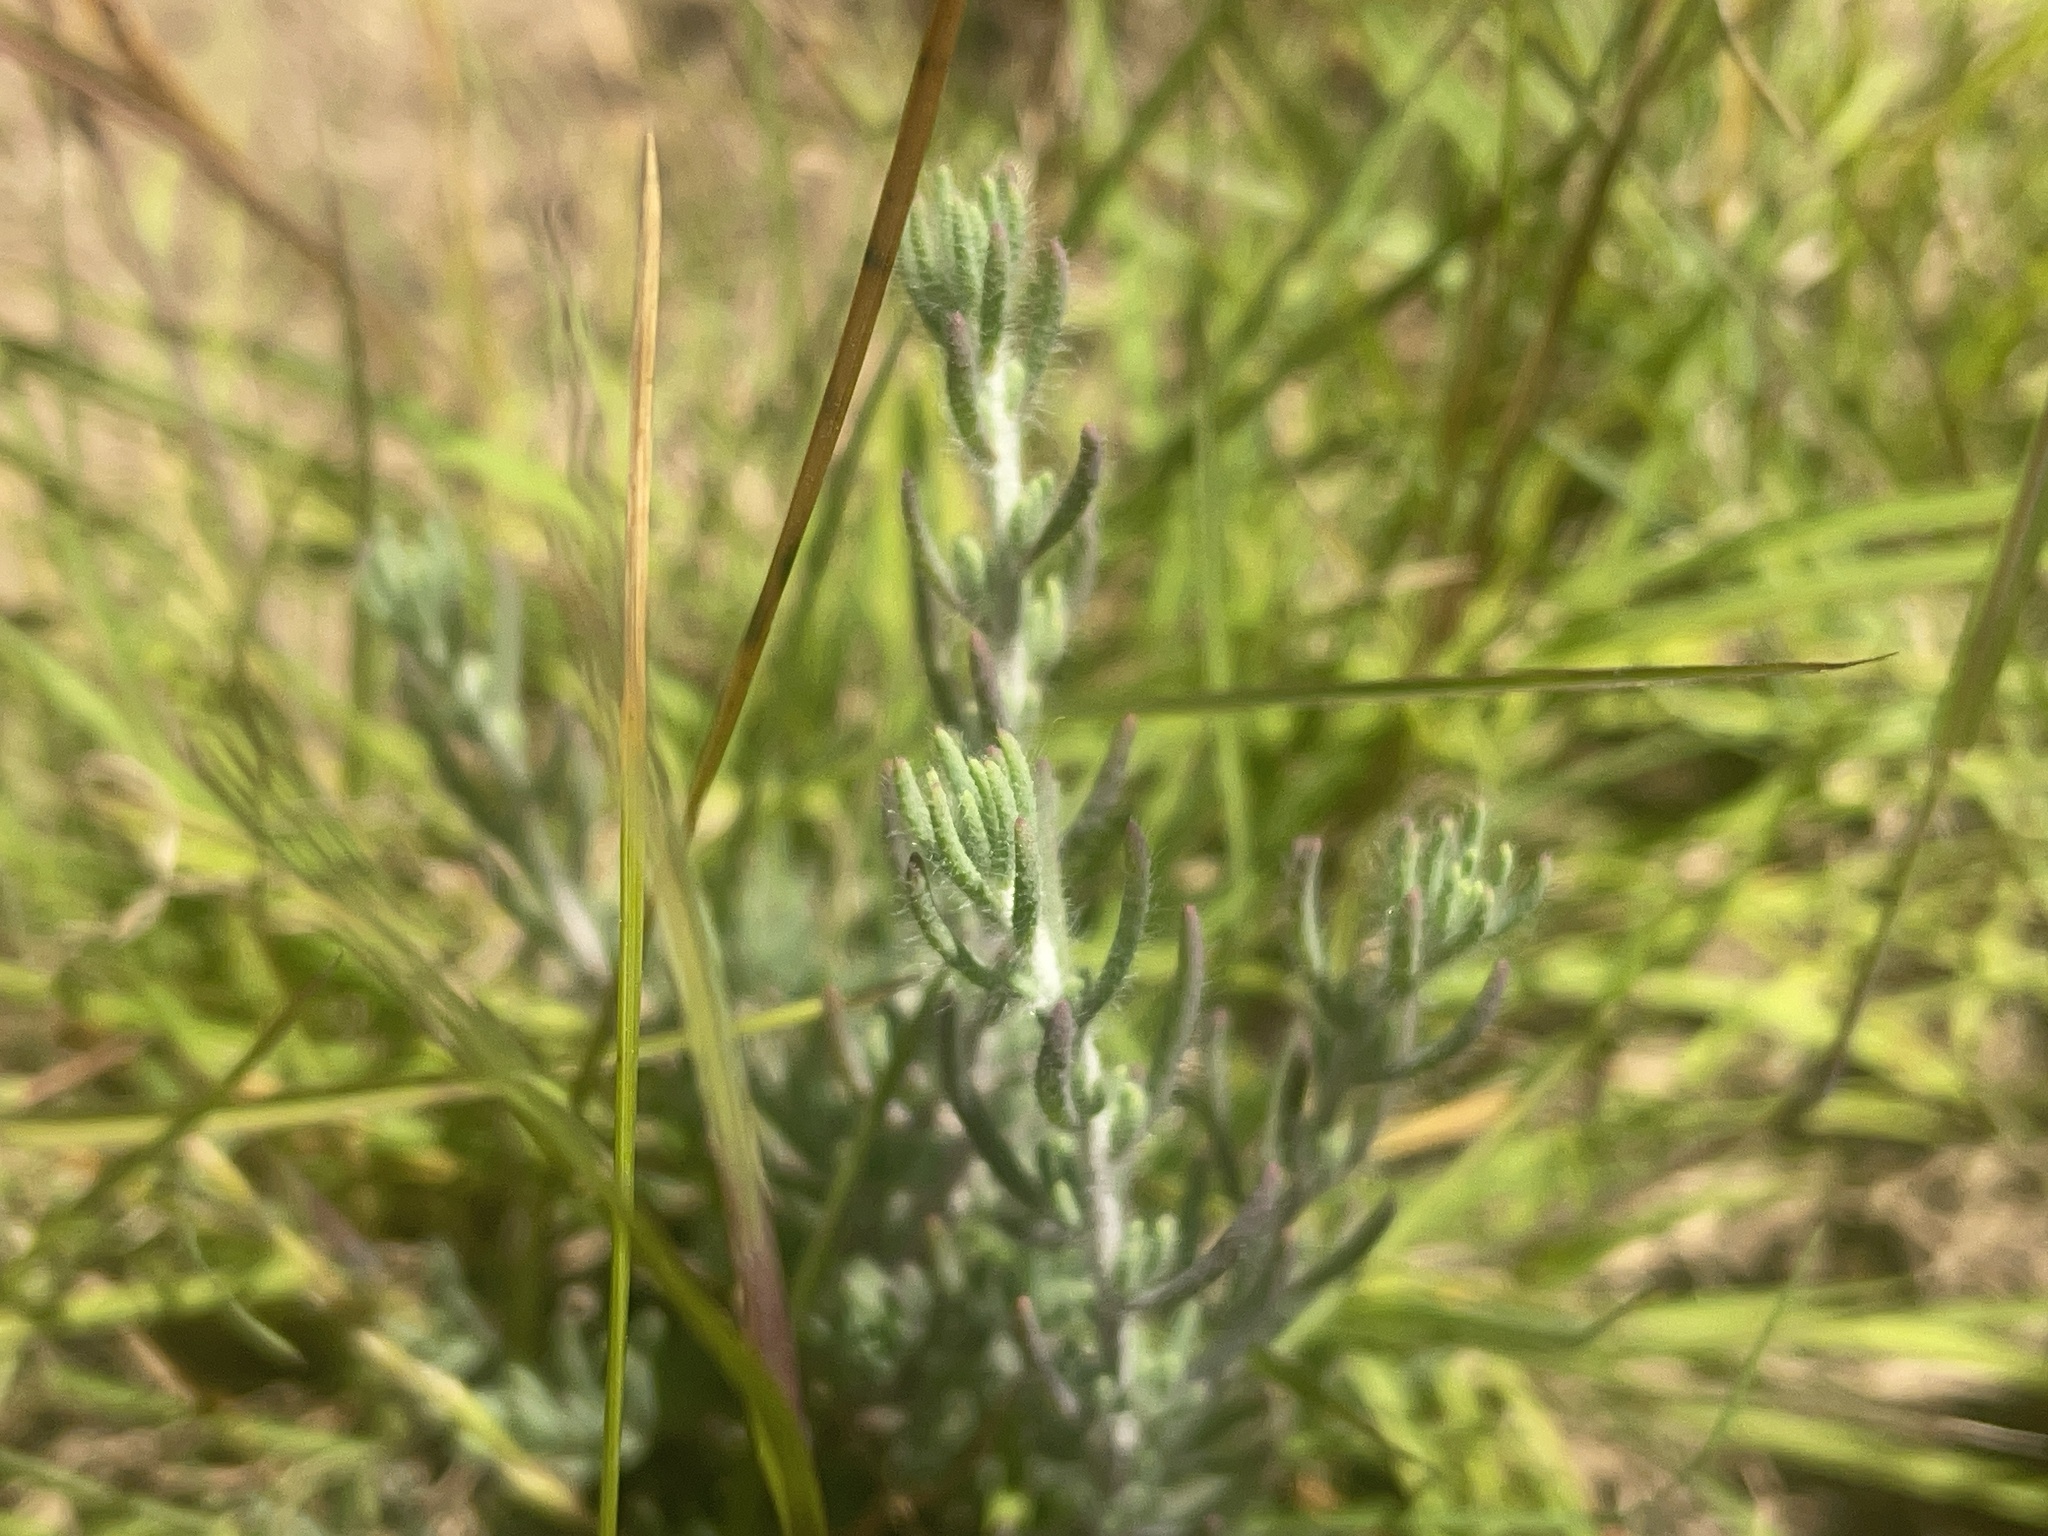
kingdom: Plantae
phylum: Tracheophyta
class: Magnoliopsida
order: Caryophyllales
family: Amaranthaceae
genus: Enchylaena
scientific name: Enchylaena tomentosa
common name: Ruby saltbush
